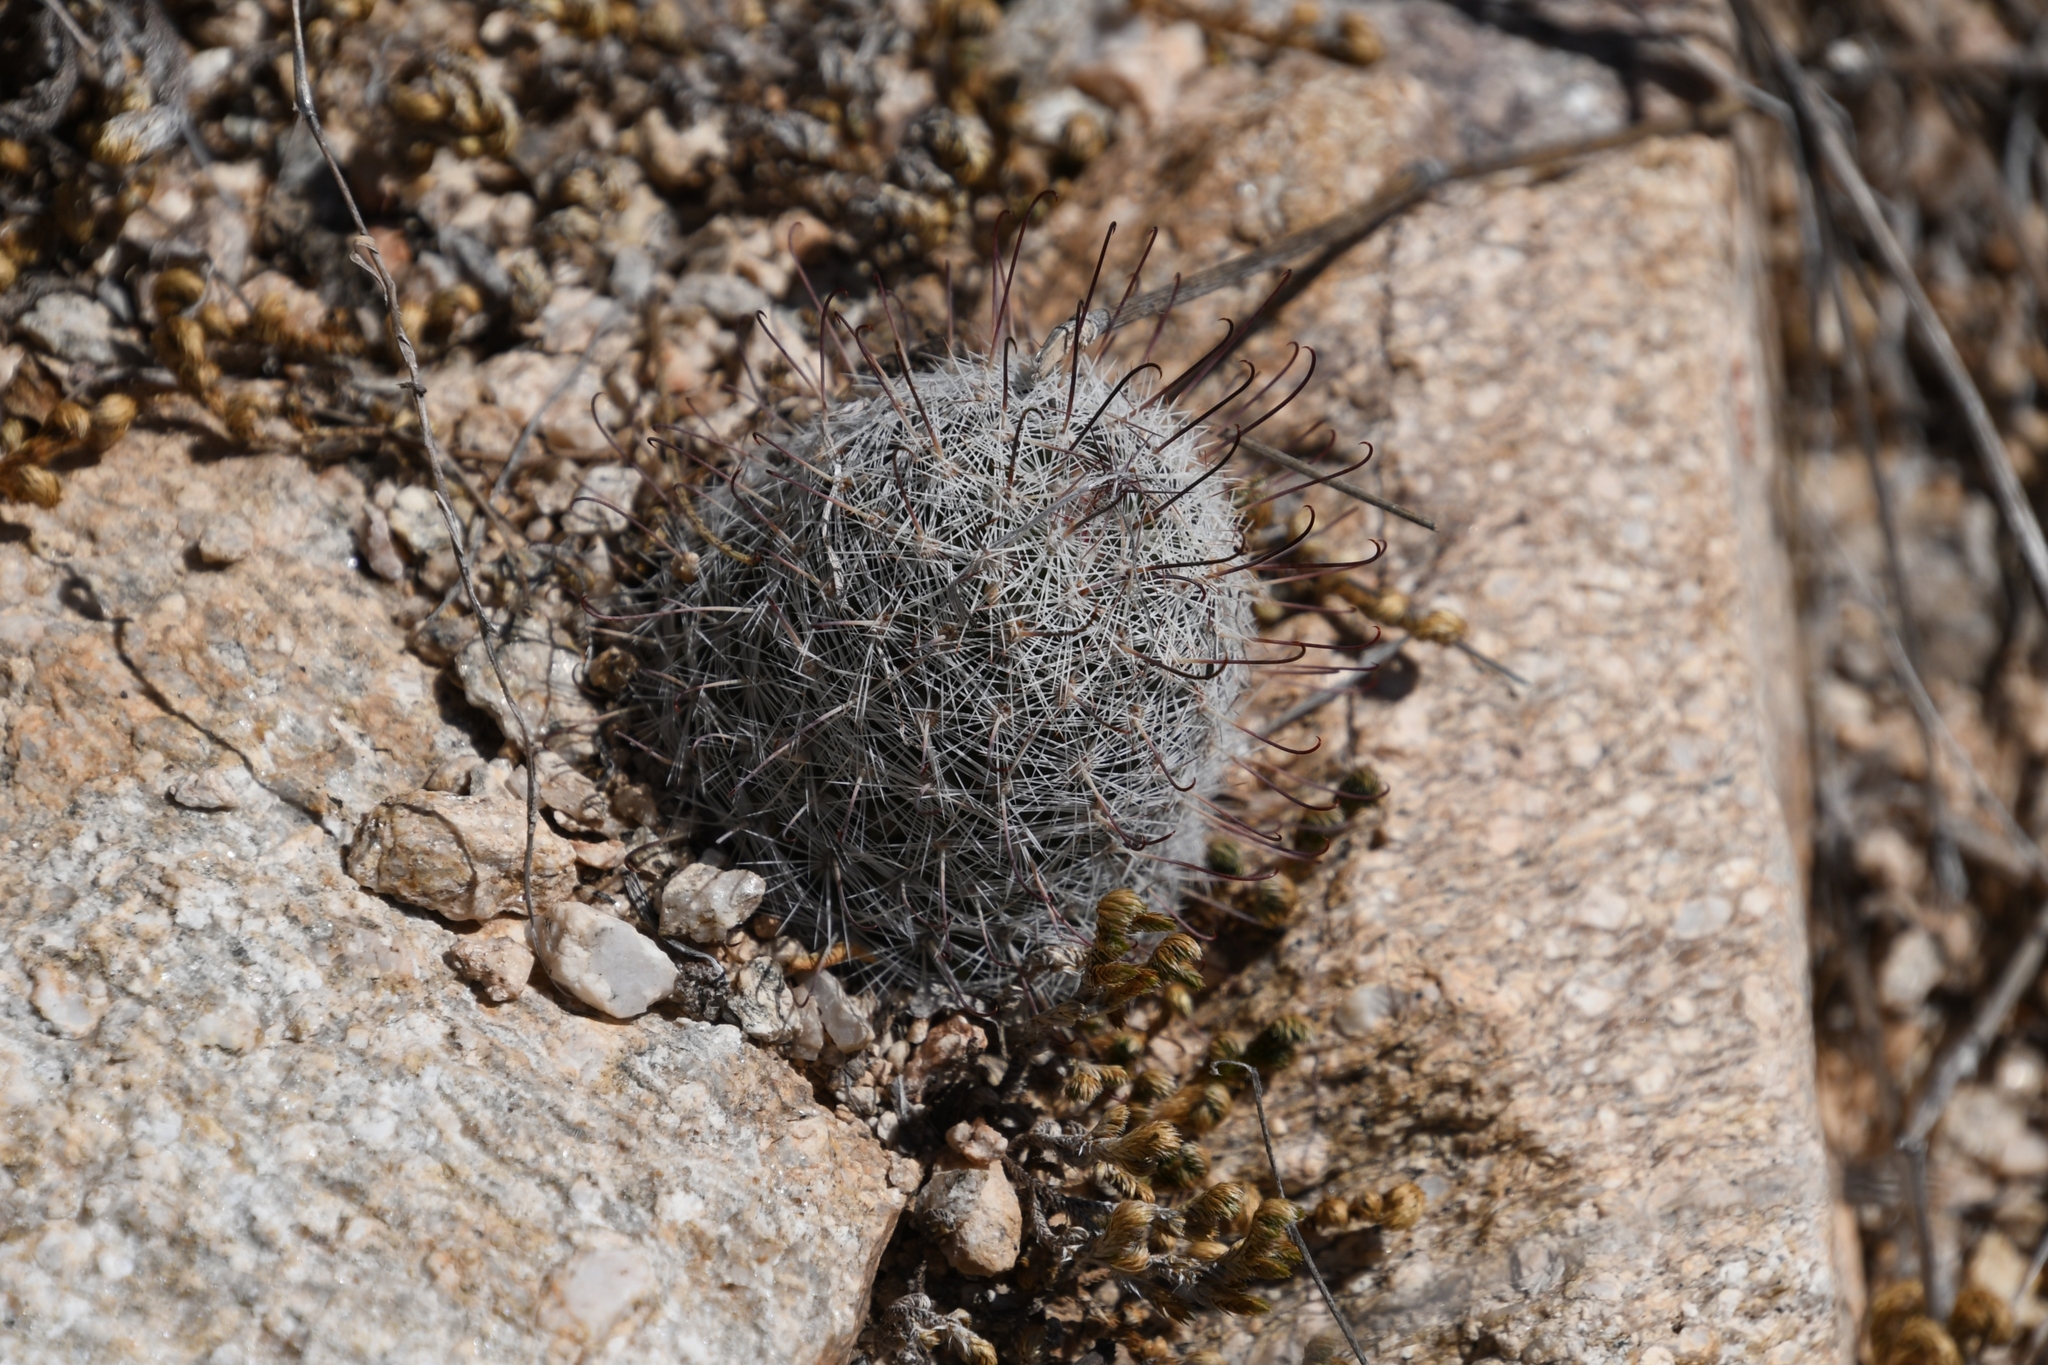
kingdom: Plantae
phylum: Tracheophyta
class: Magnoliopsida
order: Caryophyllales
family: Cactaceae
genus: Cochemiea
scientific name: Cochemiea grahamii
